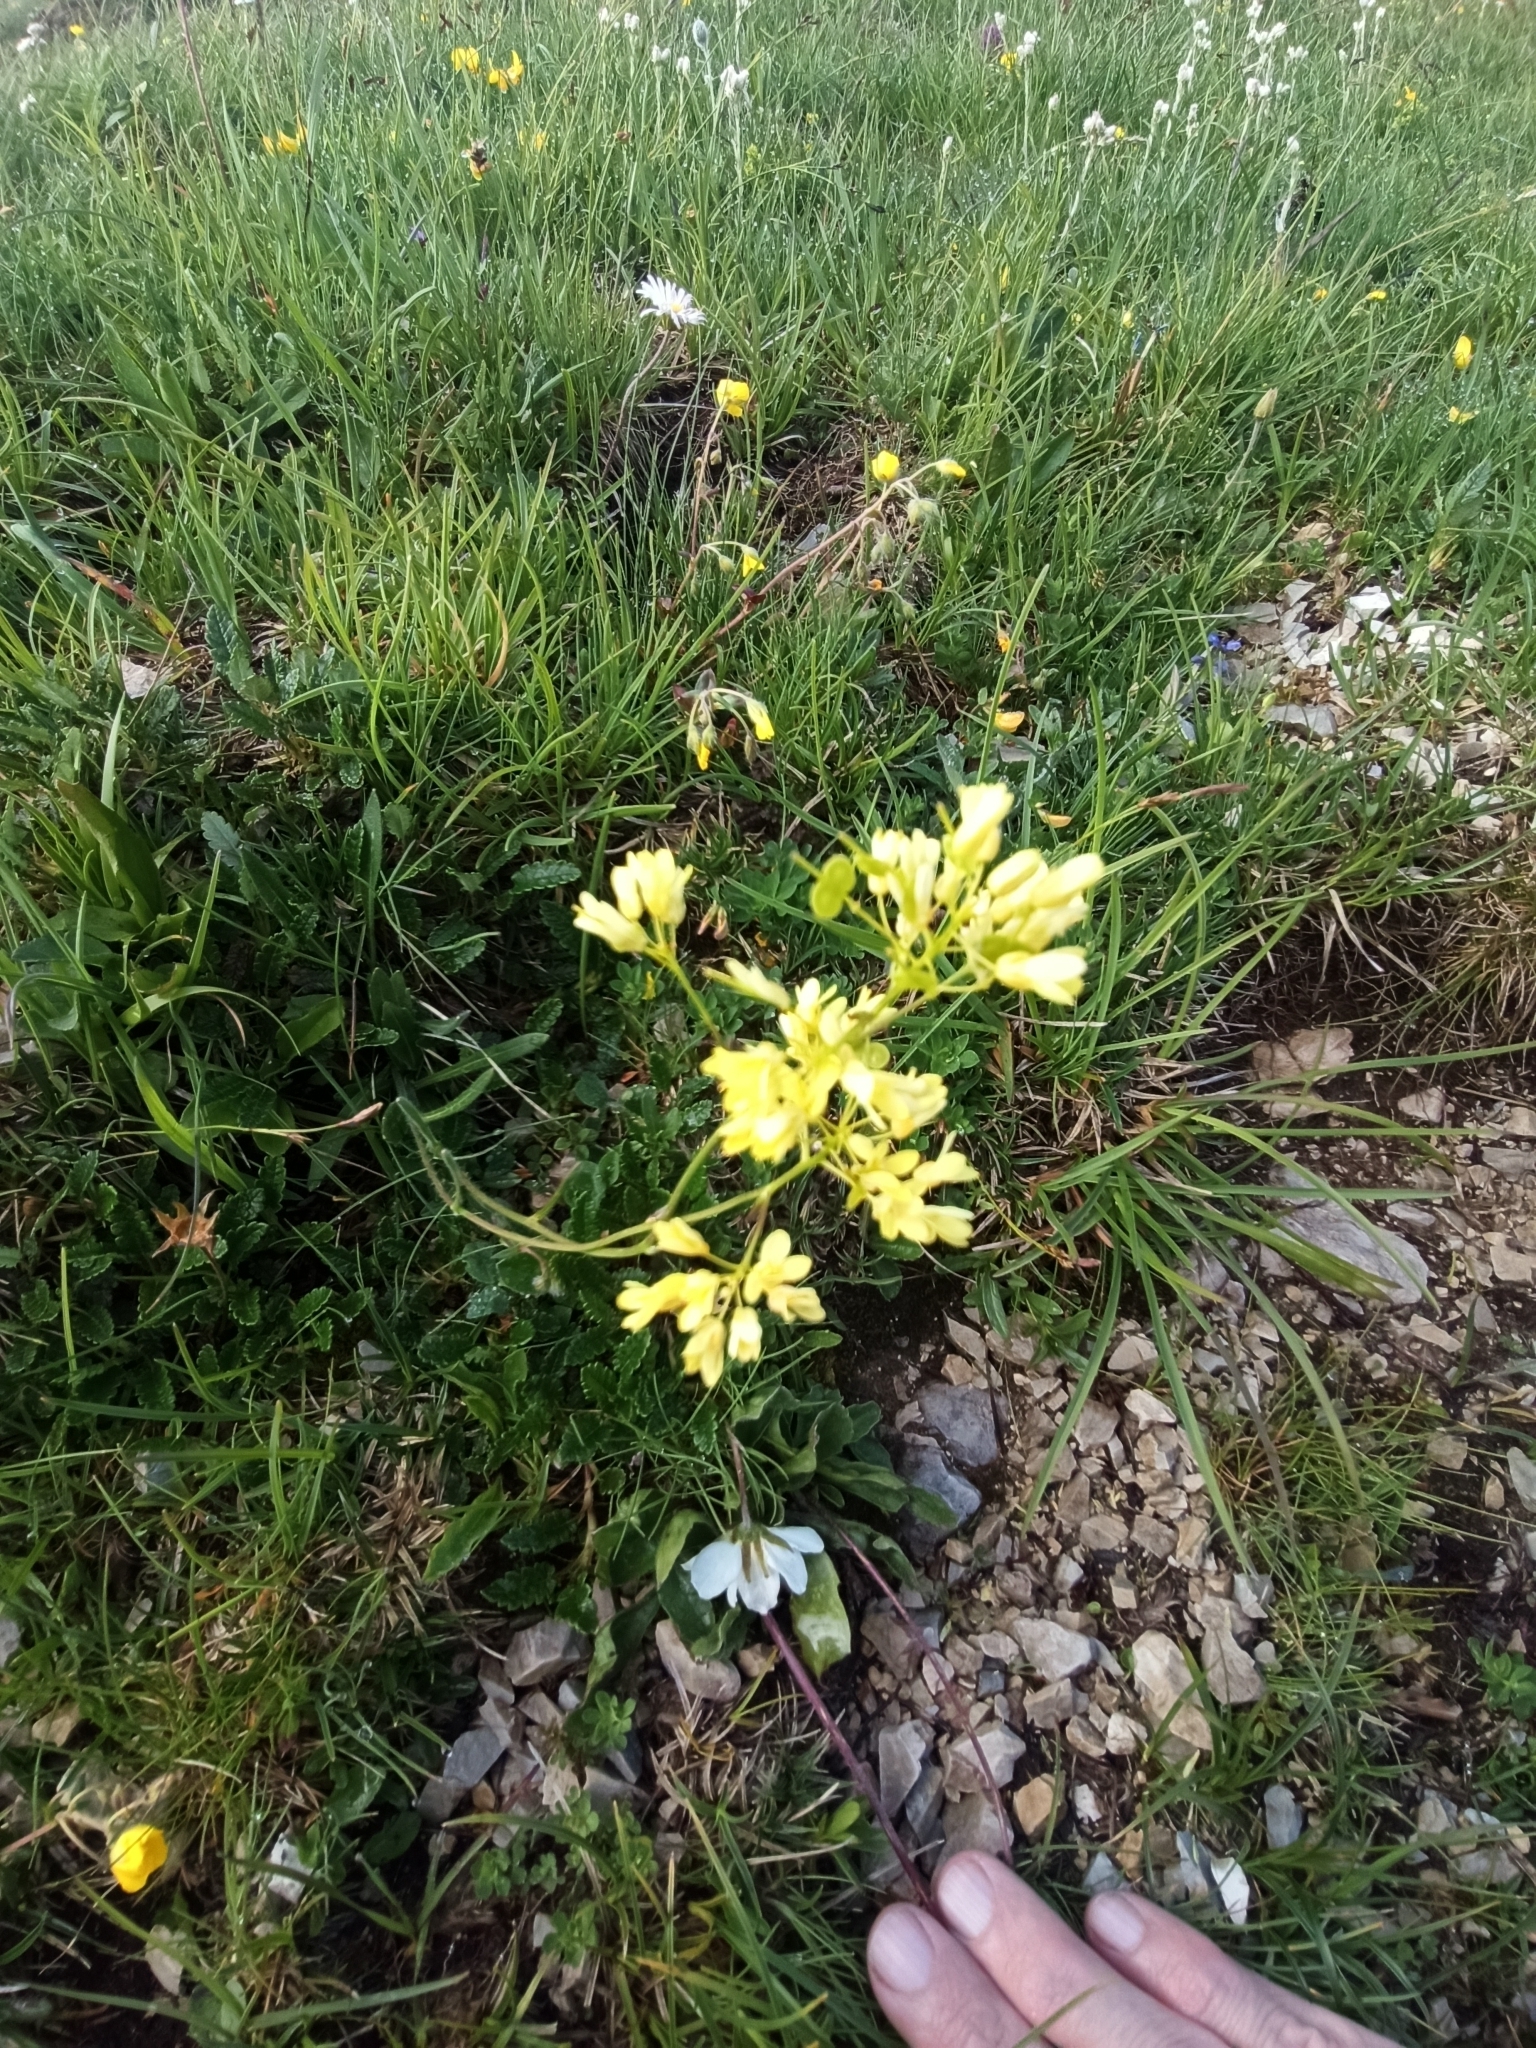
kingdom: Plantae
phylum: Tracheophyta
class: Magnoliopsida
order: Brassicales
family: Brassicaceae
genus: Biscutella
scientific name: Biscutella laevigata
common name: Buckler mustard
